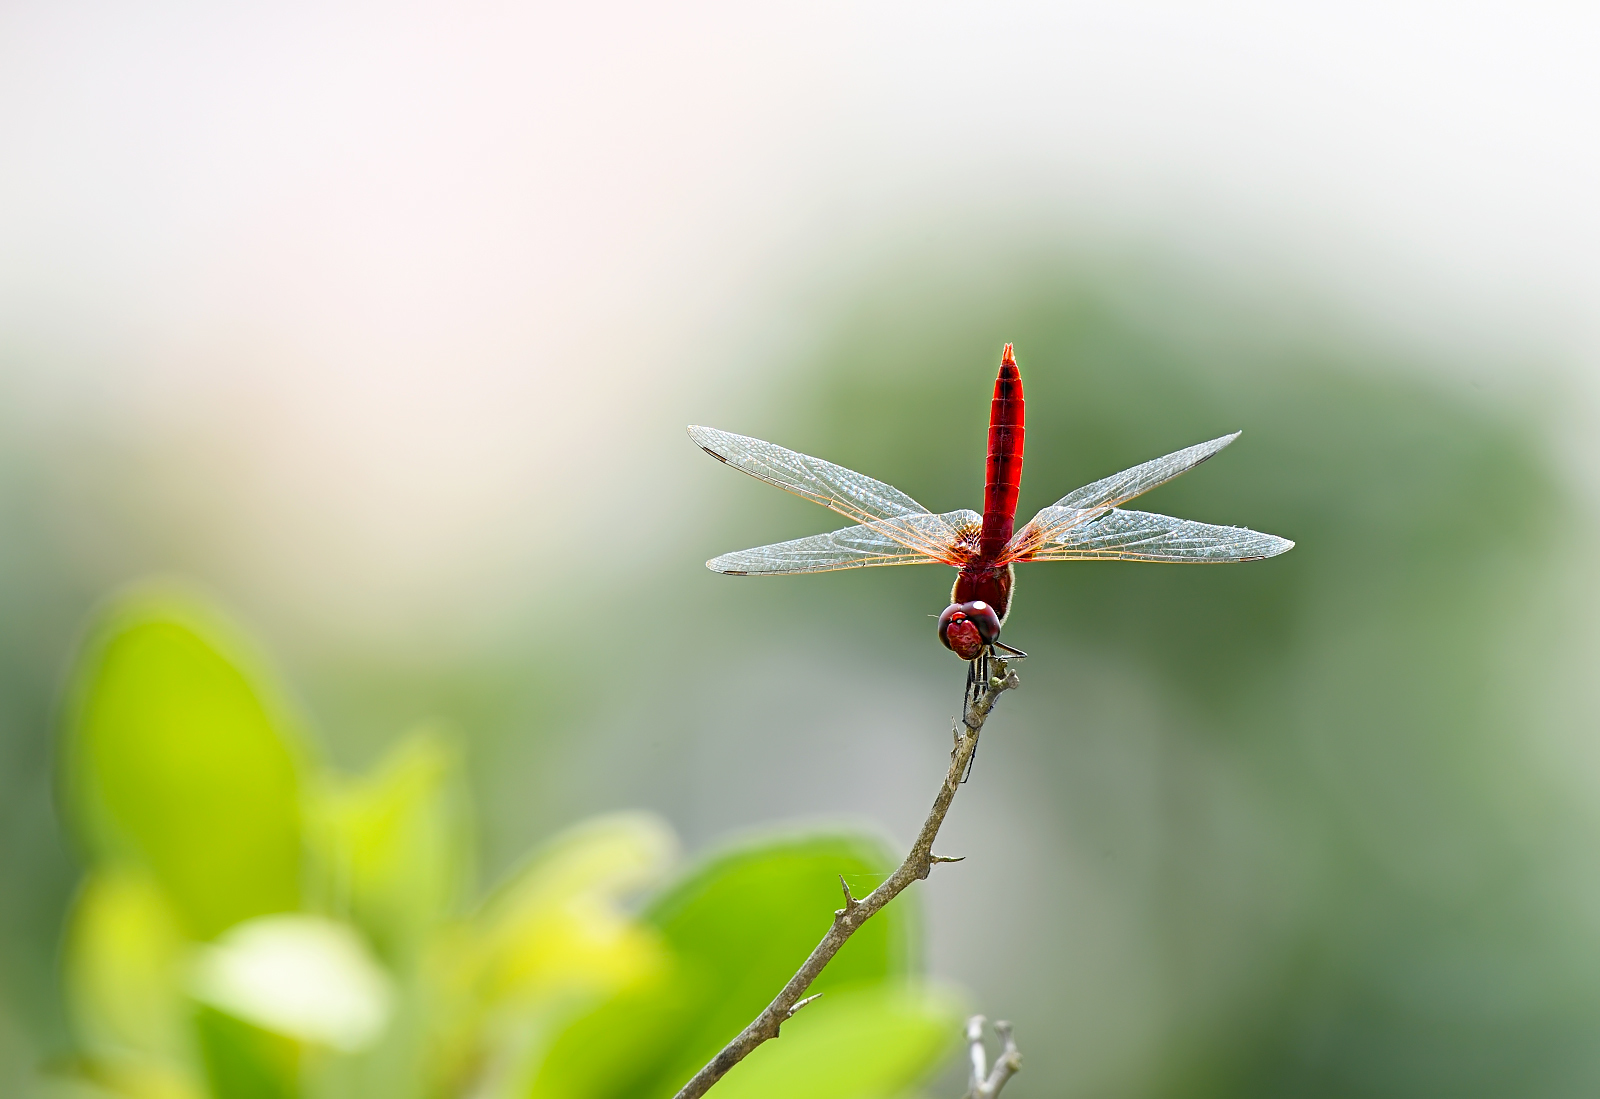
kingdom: Animalia
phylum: Arthropoda
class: Insecta
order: Odonata
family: Libellulidae
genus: Urothemis
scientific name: Urothemis signata
